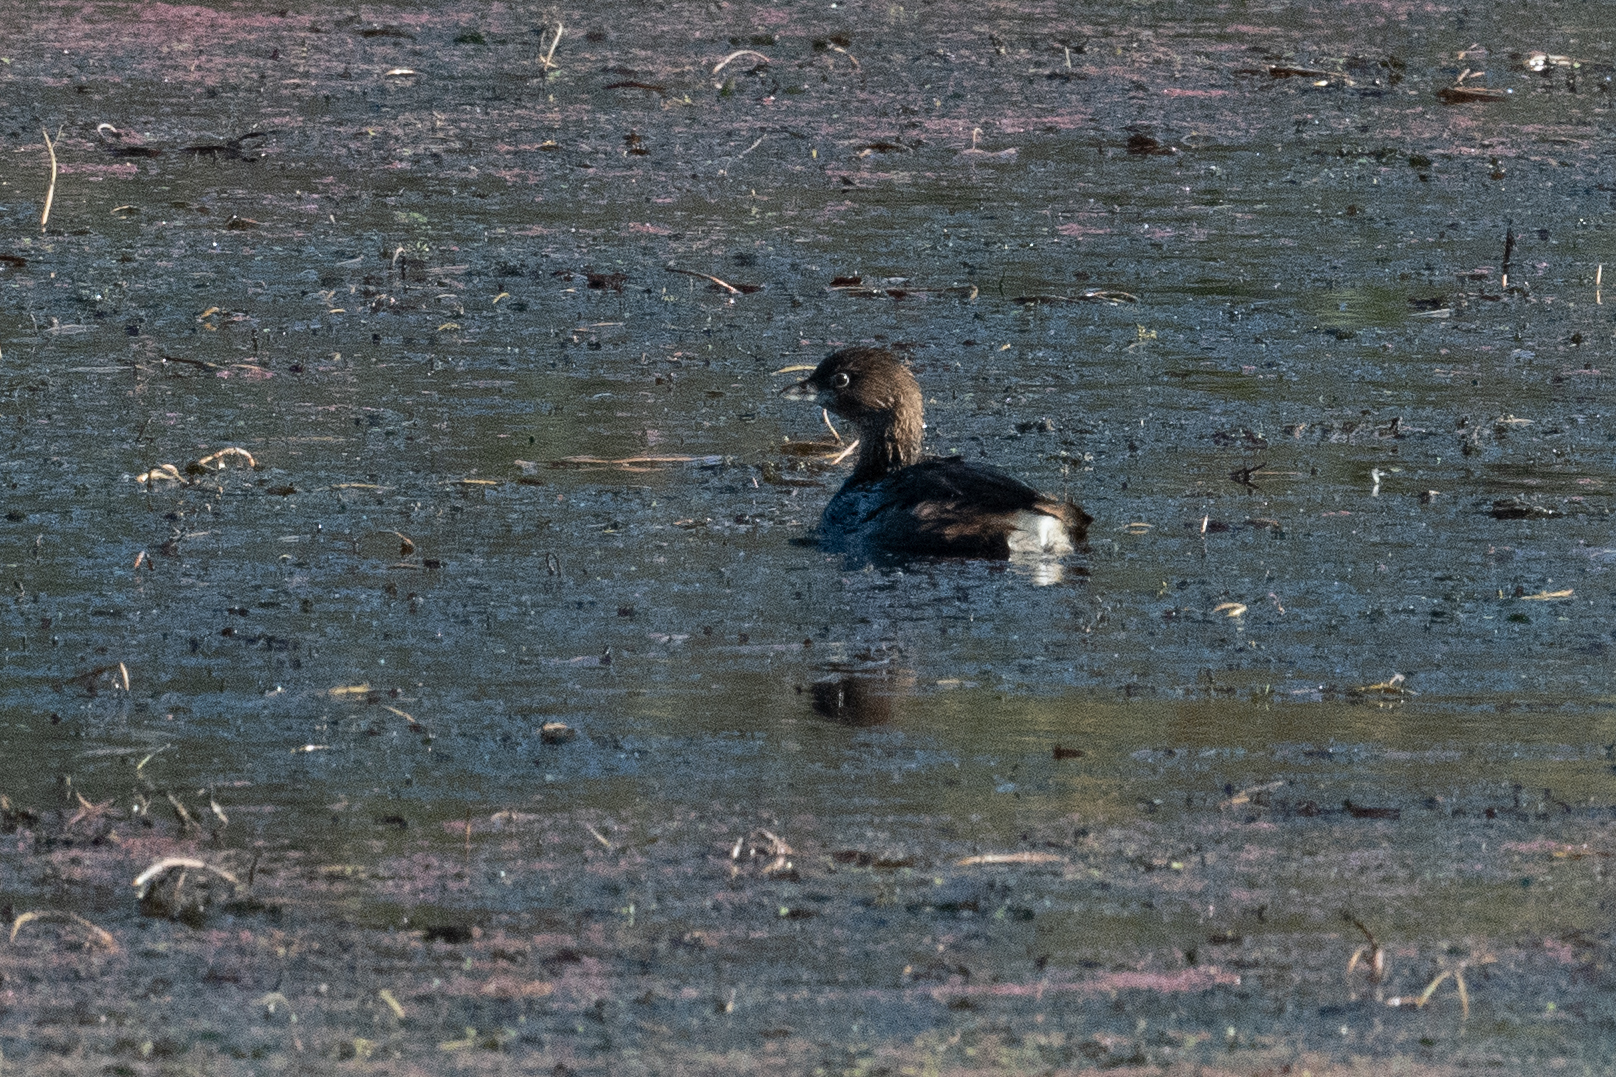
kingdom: Animalia
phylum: Chordata
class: Aves
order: Podicipediformes
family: Podicipedidae
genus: Podilymbus
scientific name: Podilymbus podiceps
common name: Pied-billed grebe
